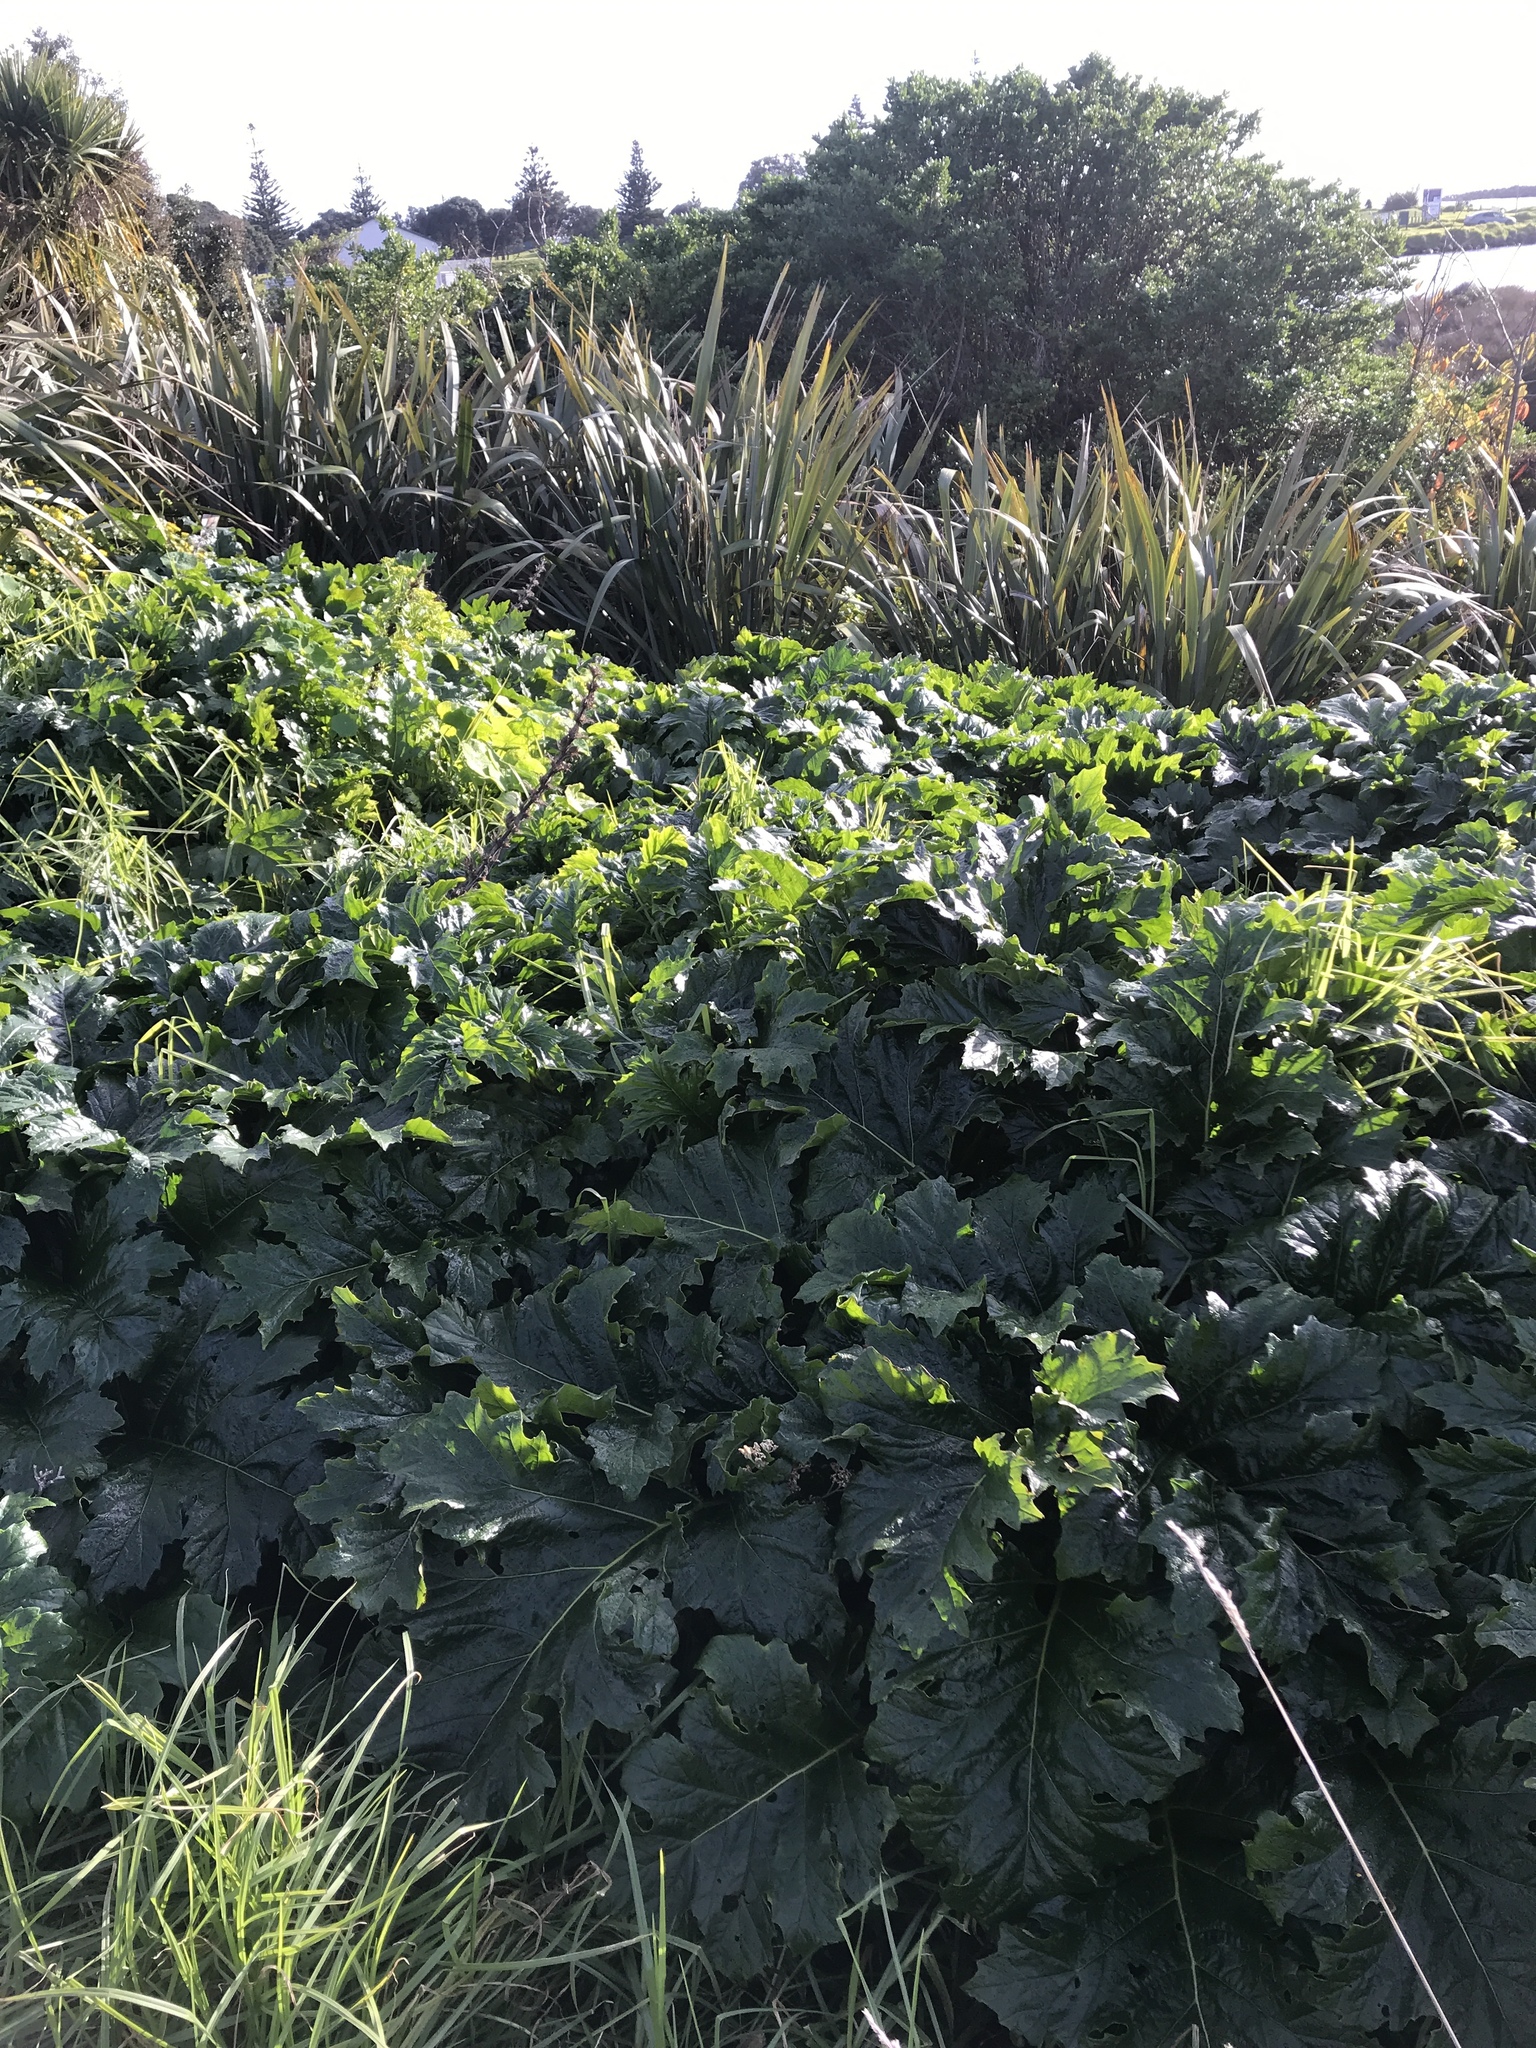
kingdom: Plantae
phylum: Tracheophyta
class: Magnoliopsida
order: Lamiales
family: Acanthaceae
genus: Acanthus
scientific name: Acanthus mollis
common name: Bear's-breech
